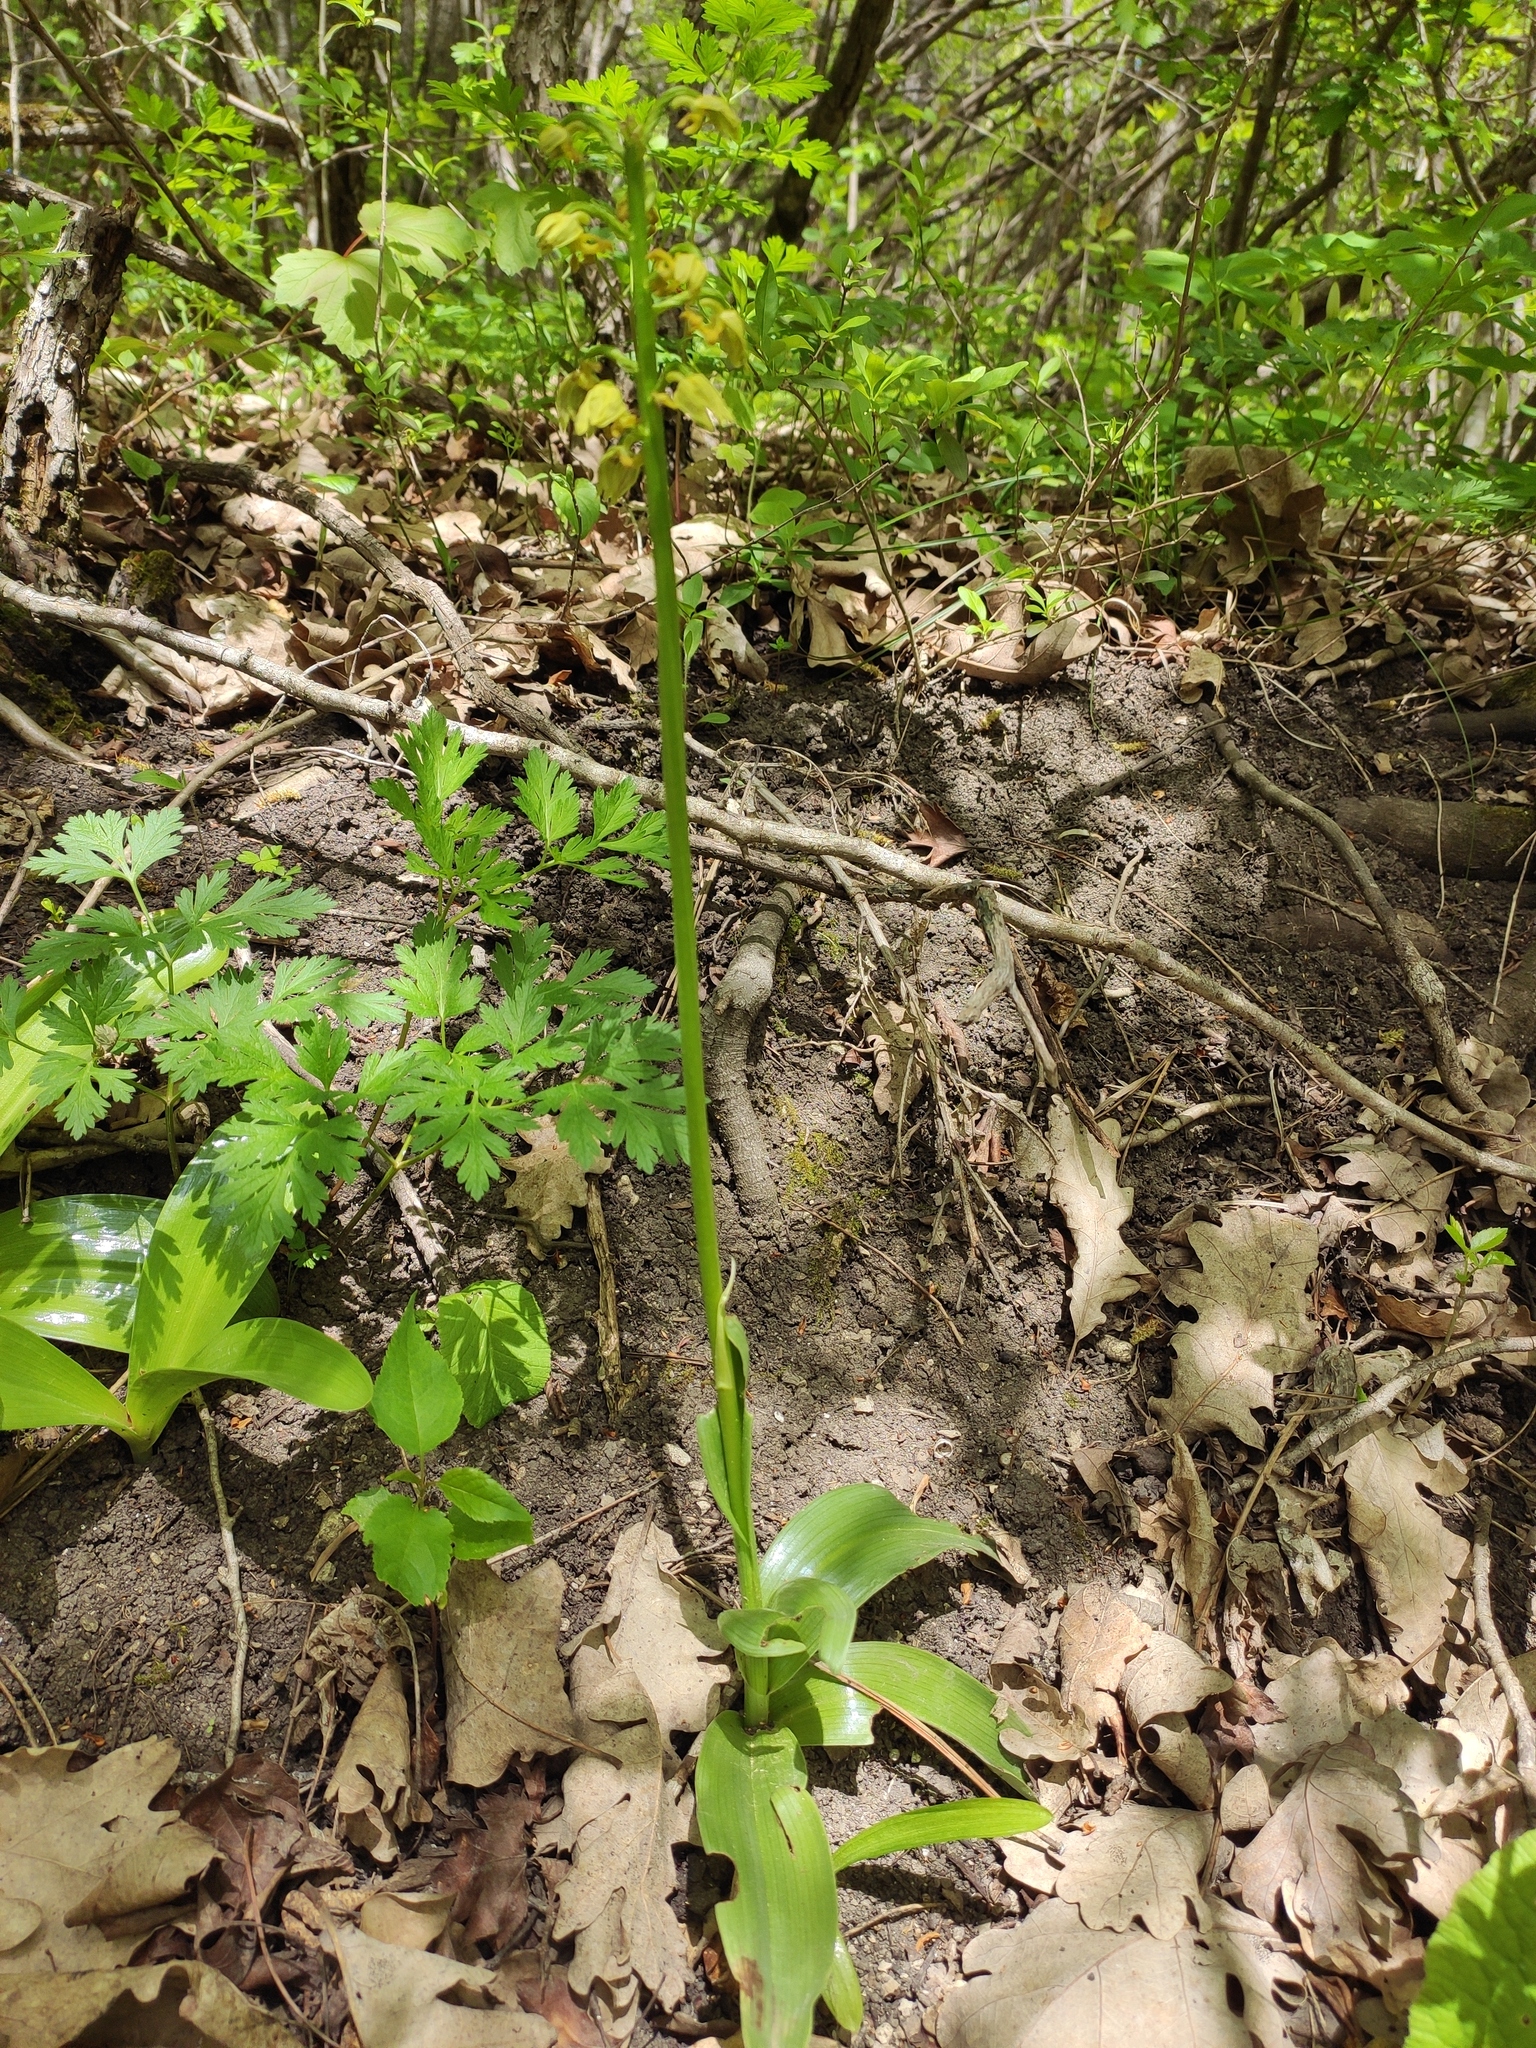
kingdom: Plantae
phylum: Tracheophyta
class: Liliopsida
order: Asparagales
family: Orchidaceae
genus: Orchis
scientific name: Orchis punctulata
